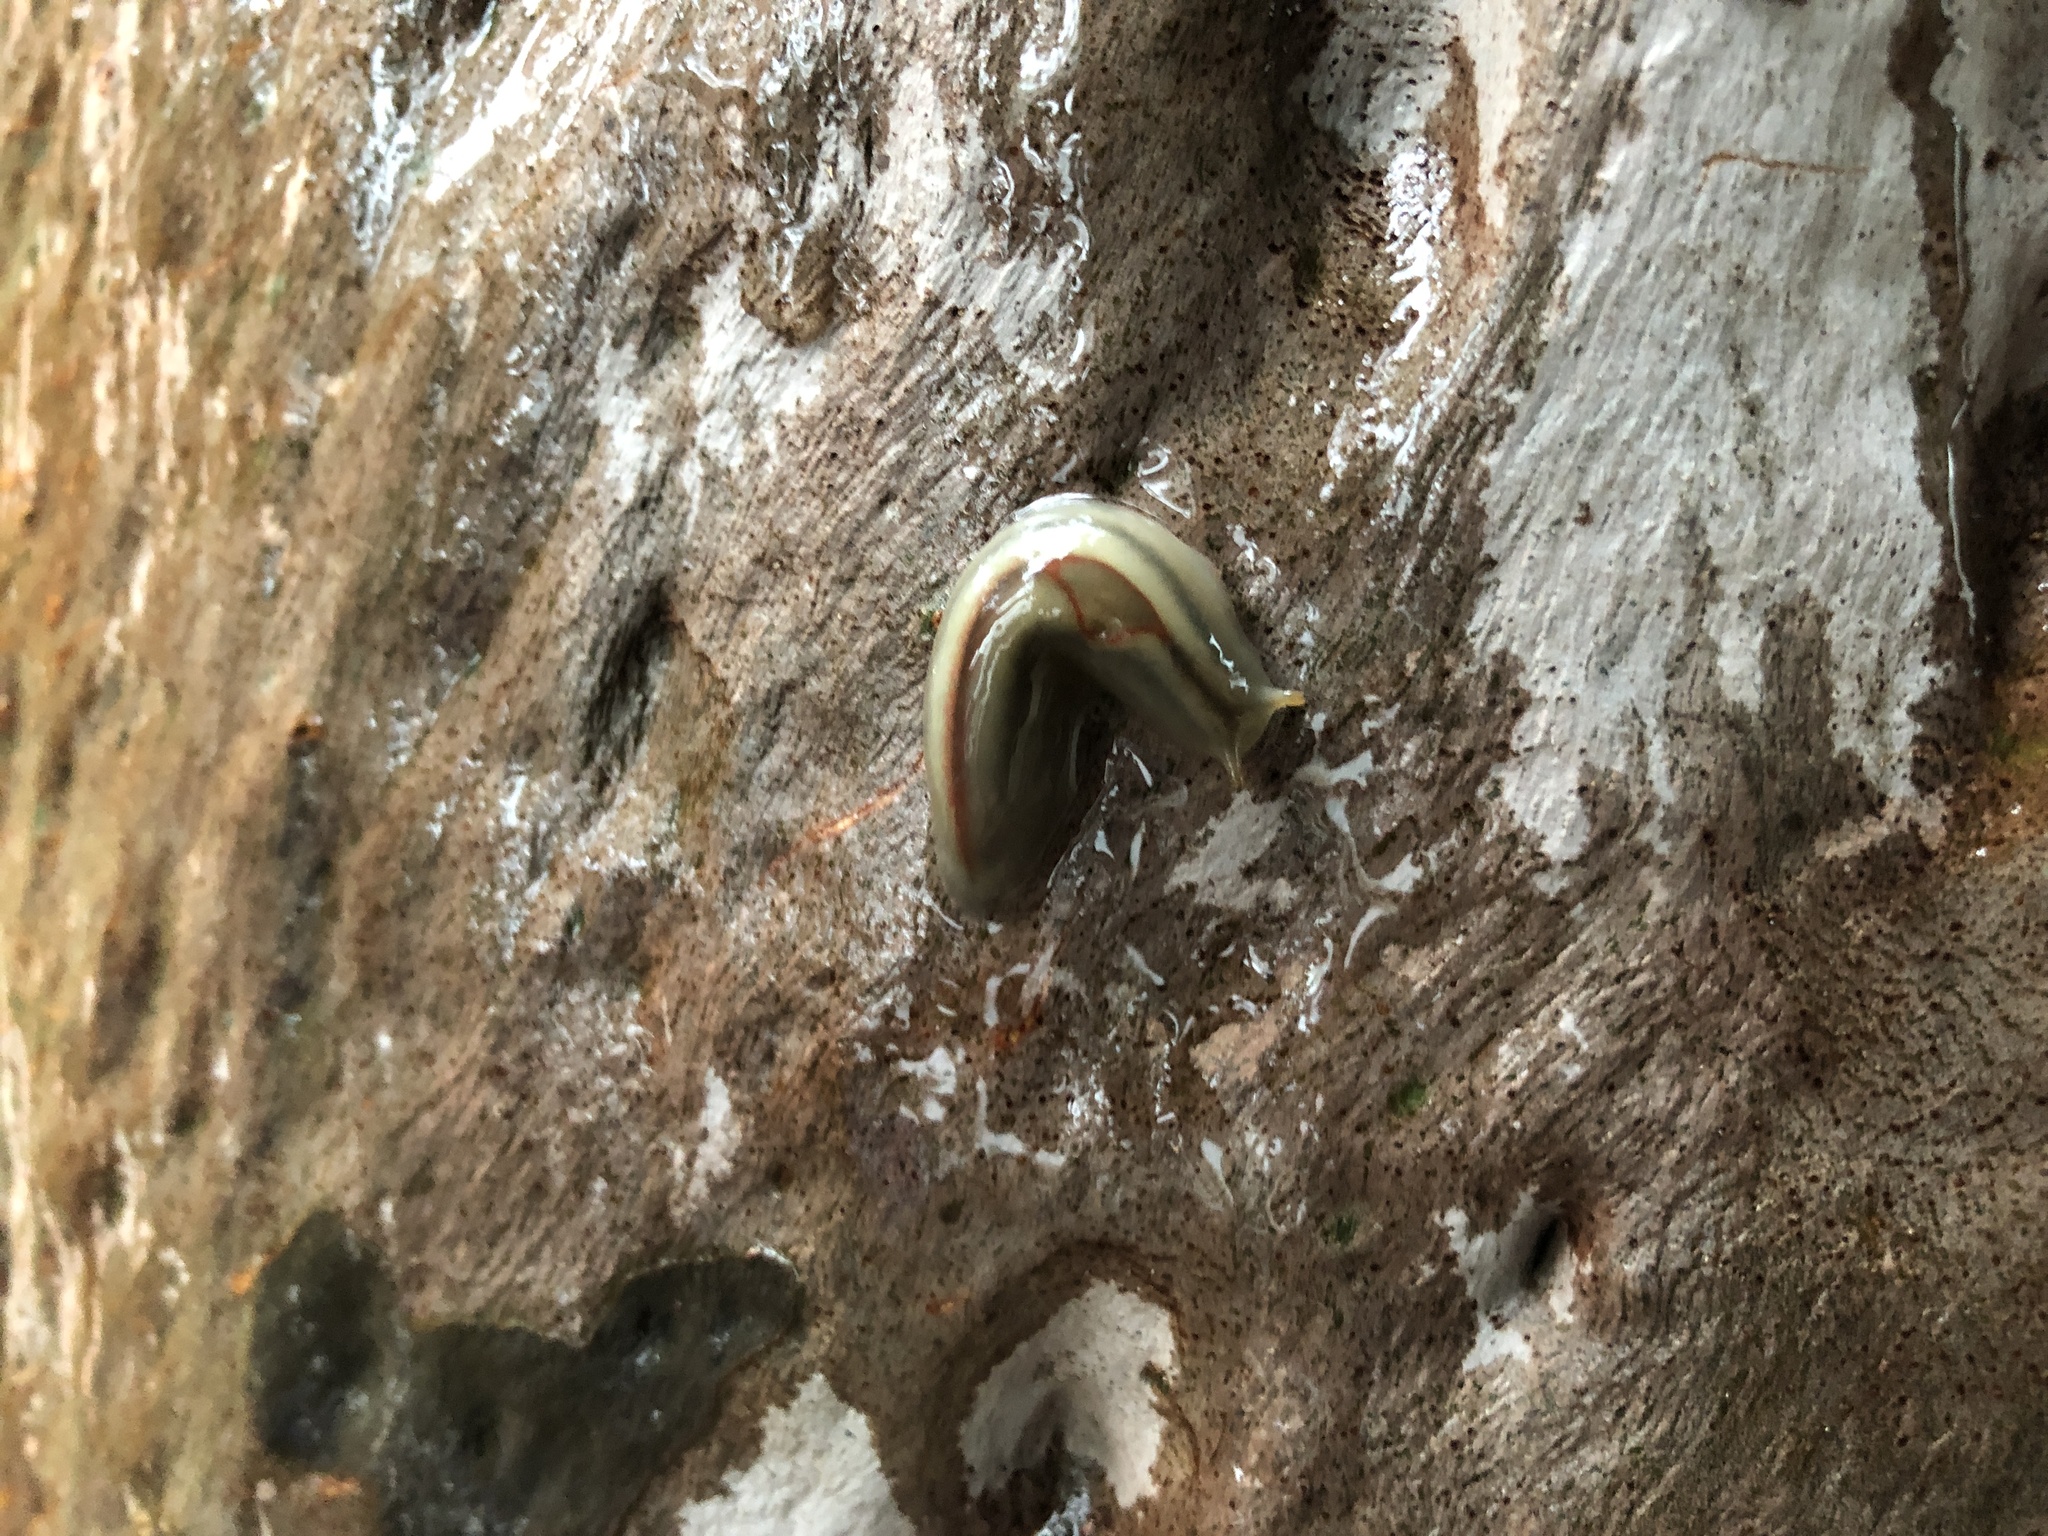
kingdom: Animalia
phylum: Mollusca
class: Gastropoda
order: Stylommatophora
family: Athoracophoridae
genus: Triboniophorus
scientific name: Triboniophorus graeffei
